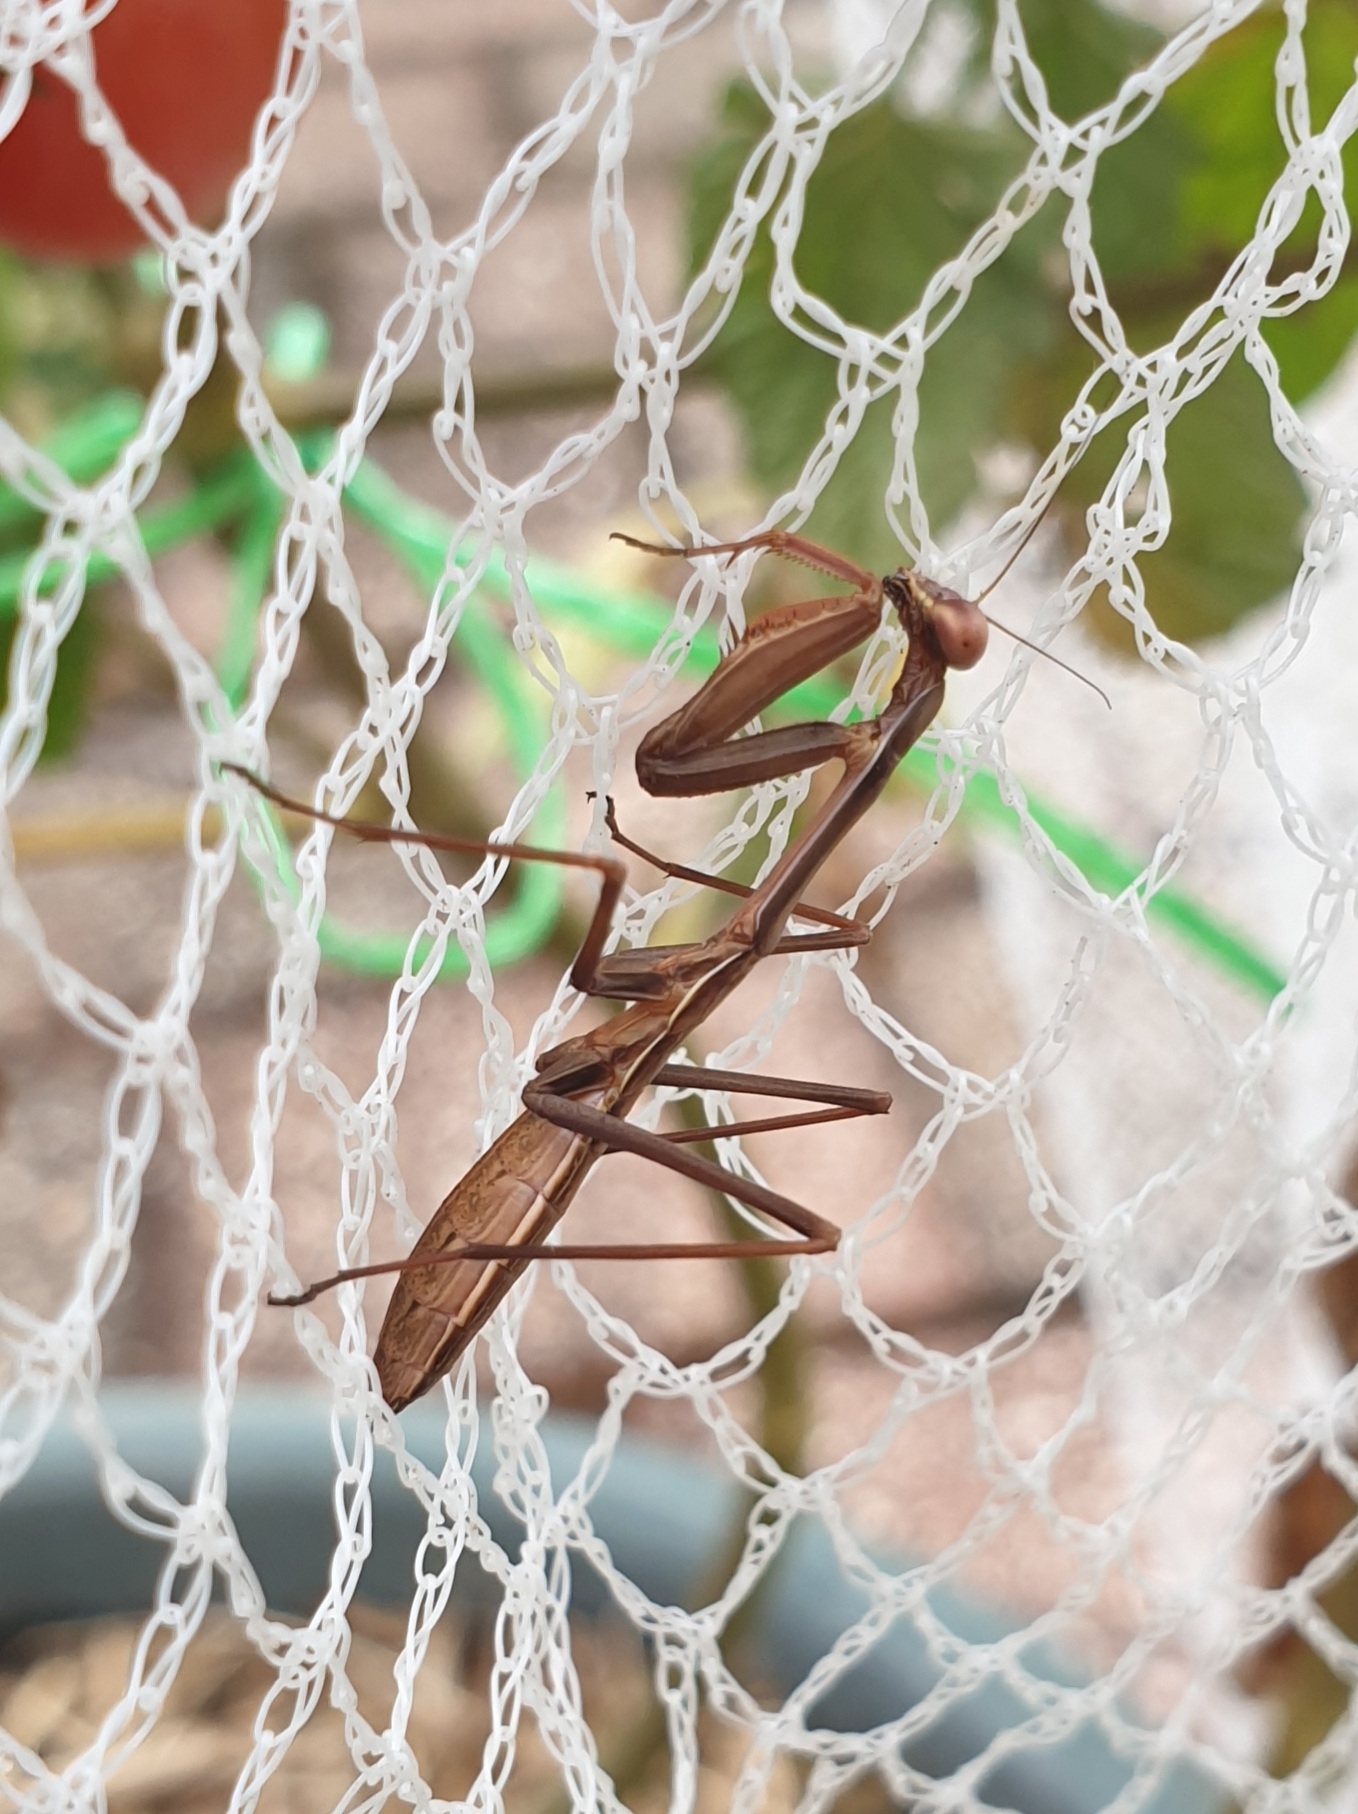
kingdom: Animalia
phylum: Arthropoda
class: Insecta
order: Mantodea
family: Mantidae
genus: Pseudomantis
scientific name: Pseudomantis albofimbriata
